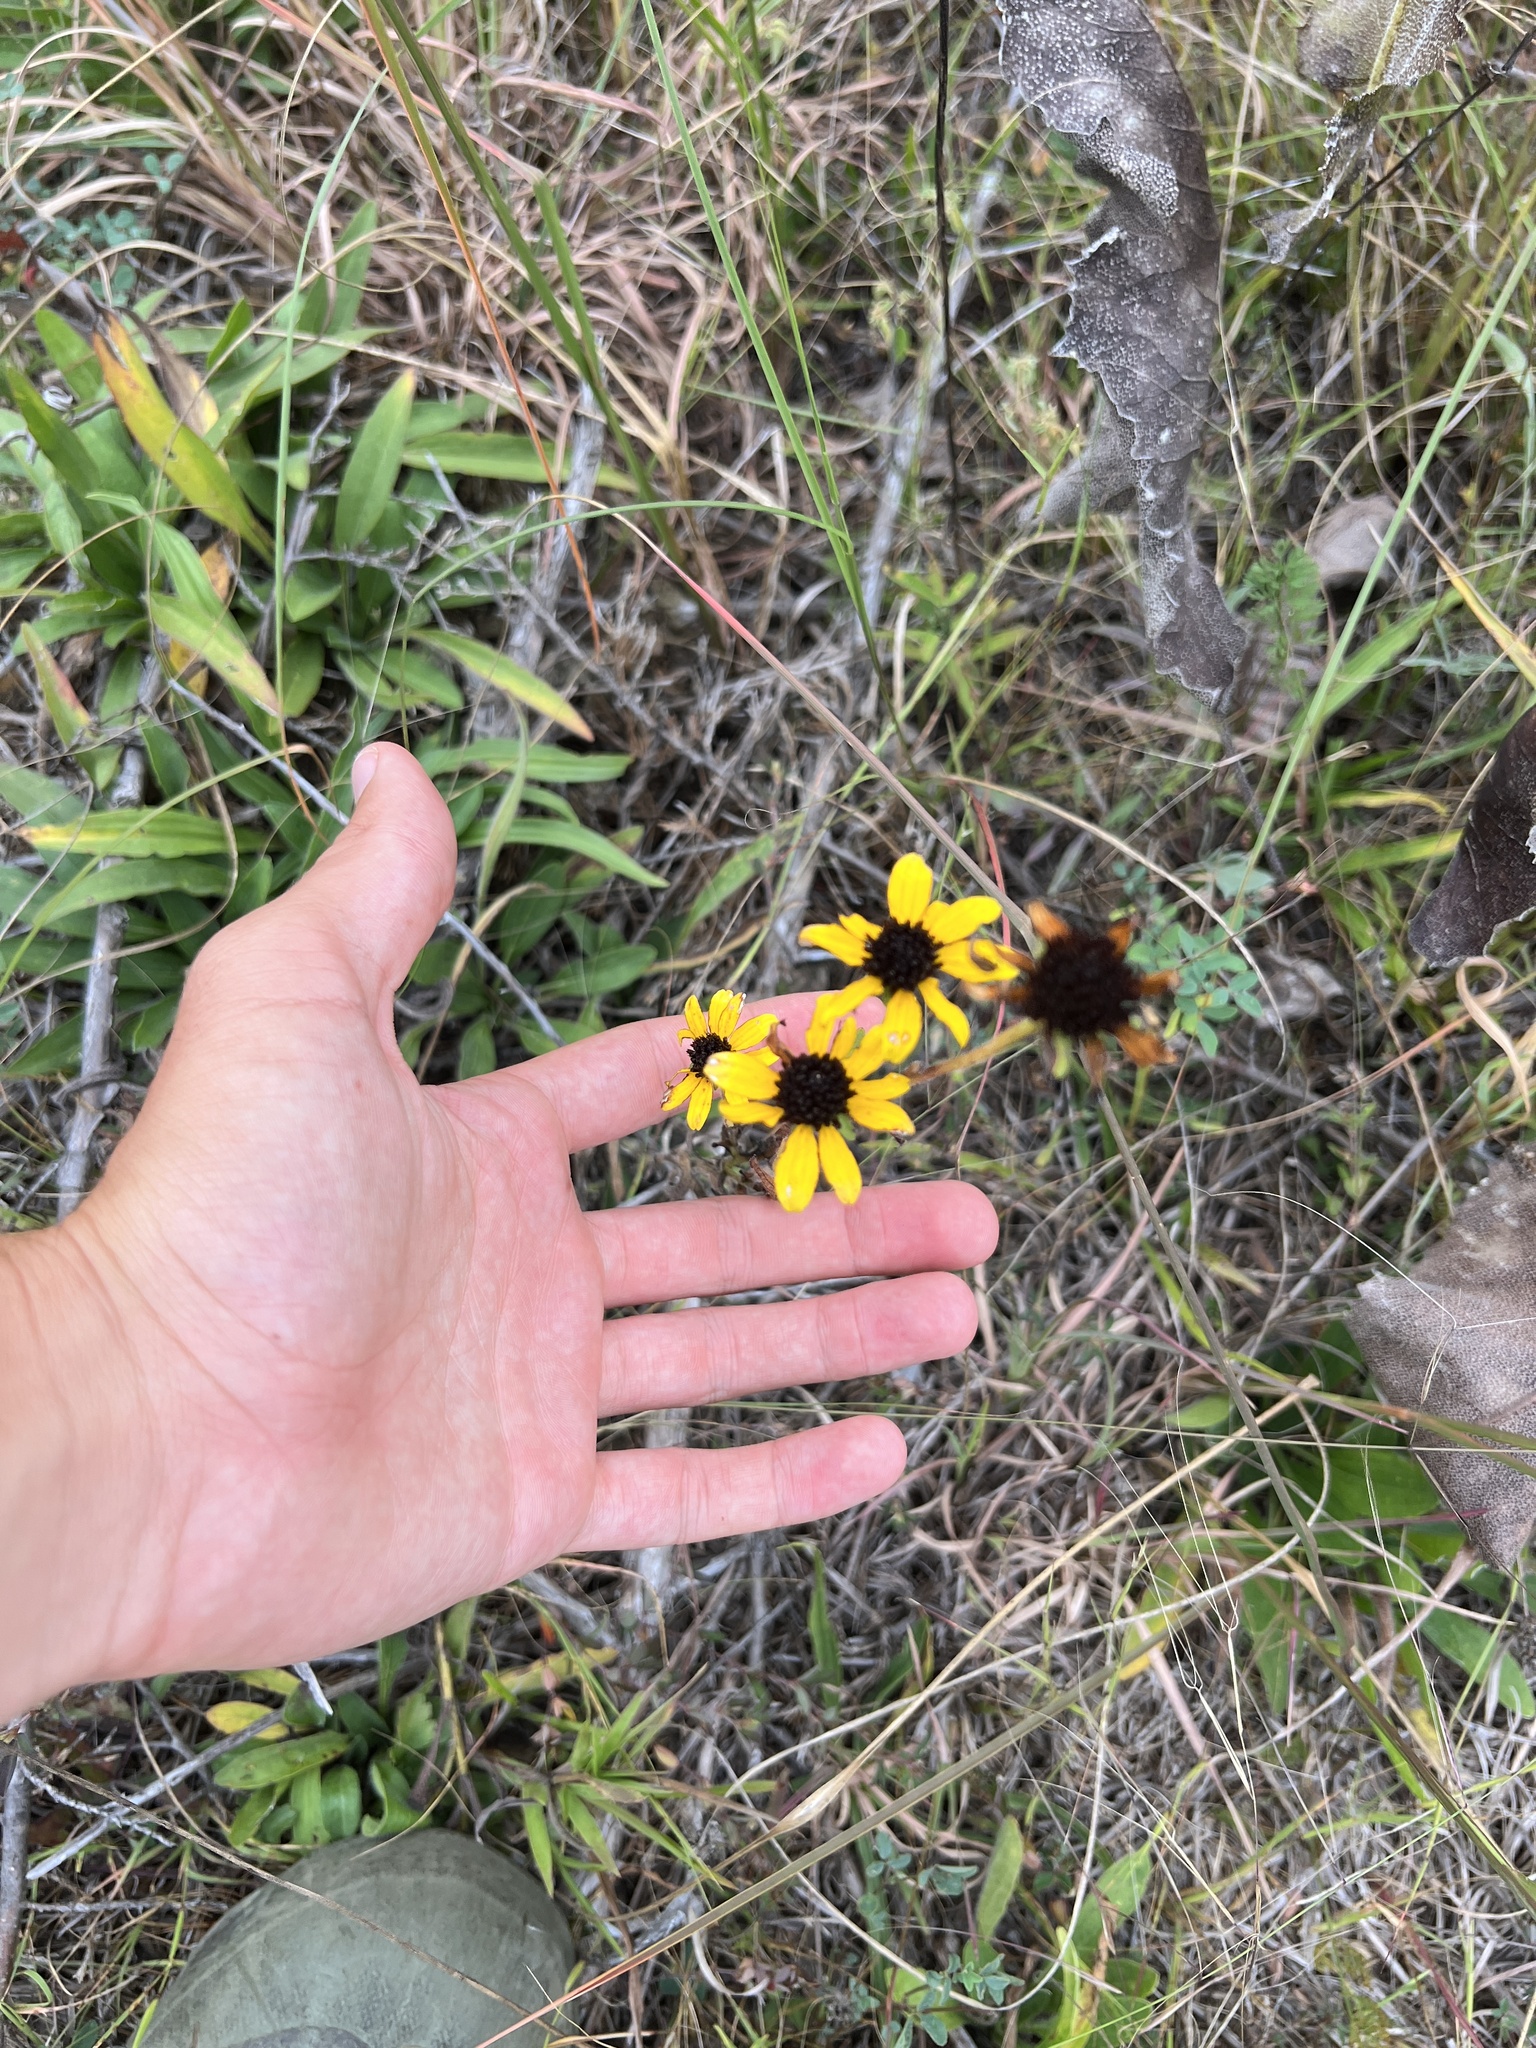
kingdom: Plantae
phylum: Tracheophyta
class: Magnoliopsida
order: Asterales
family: Asteraceae
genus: Rudbeckia
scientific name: Rudbeckia missouriensis
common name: Missouri coneflower
